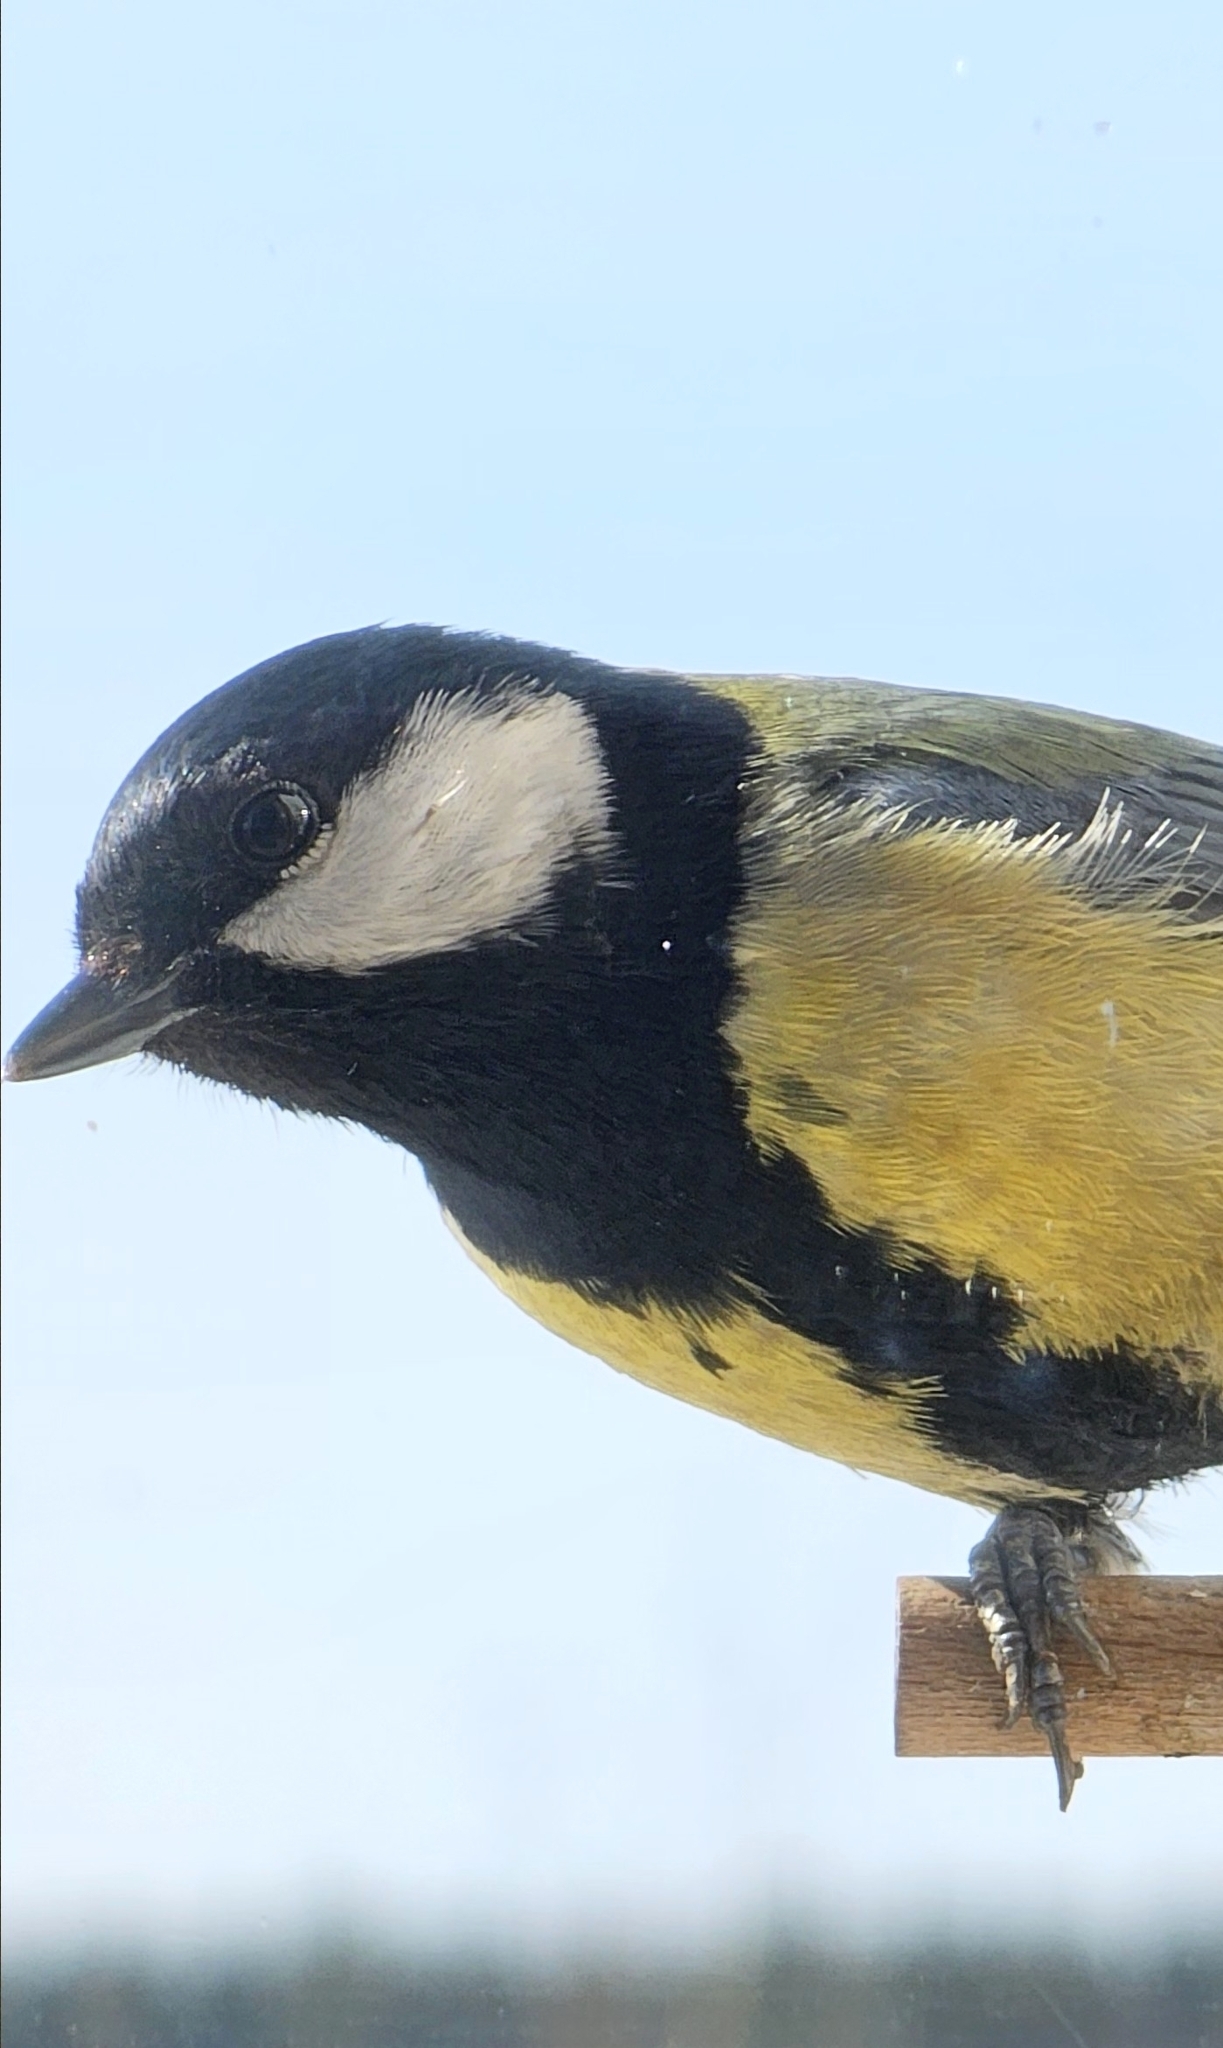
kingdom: Animalia
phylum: Chordata
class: Aves
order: Passeriformes
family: Paridae
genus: Parus
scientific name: Parus major
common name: Great tit
